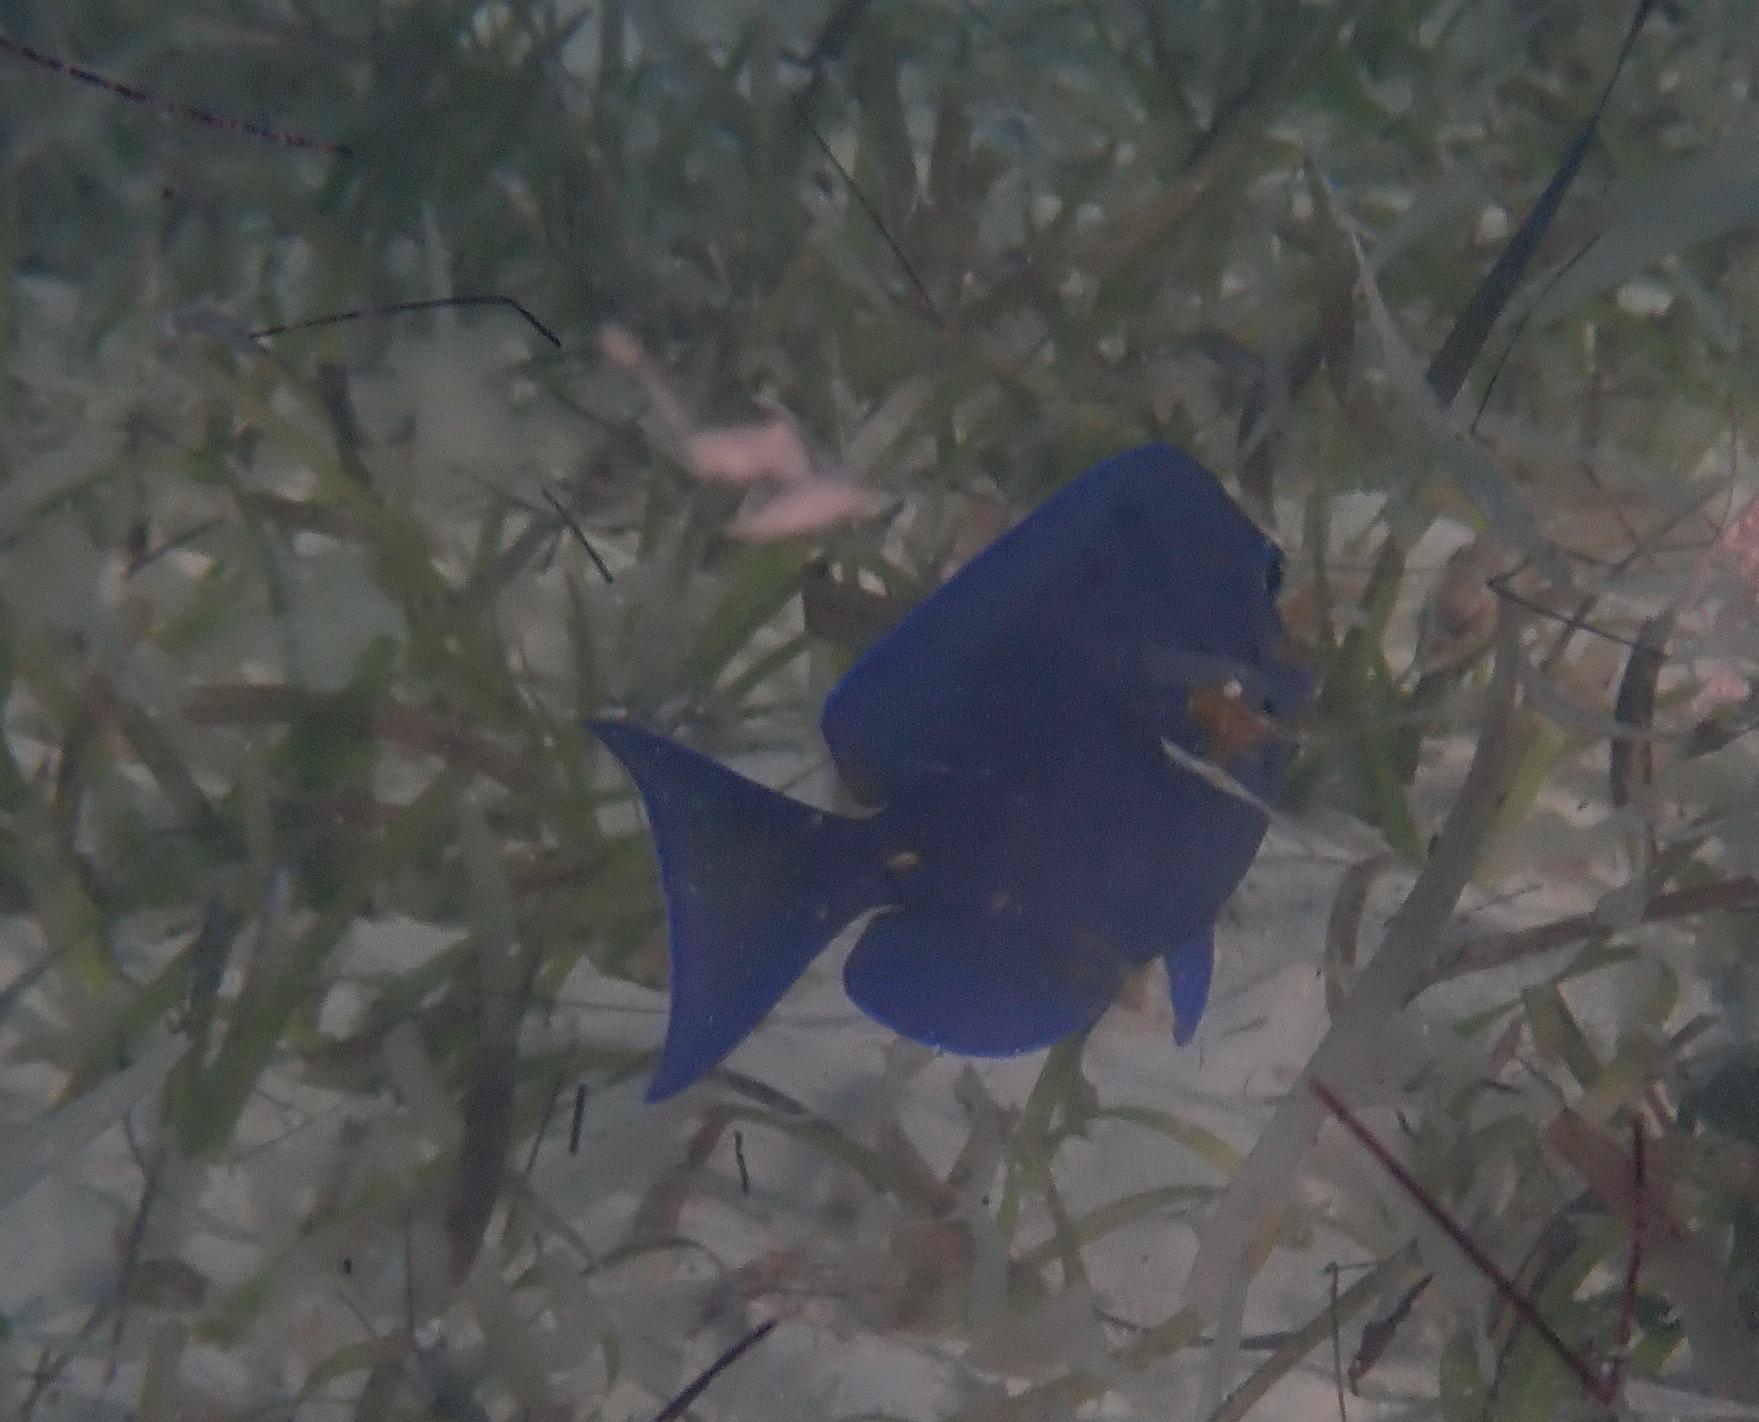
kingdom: Animalia
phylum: Chordata
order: Perciformes
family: Acanthuridae
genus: Acanthurus
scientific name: Acanthurus coeruleus
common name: Blue tang
